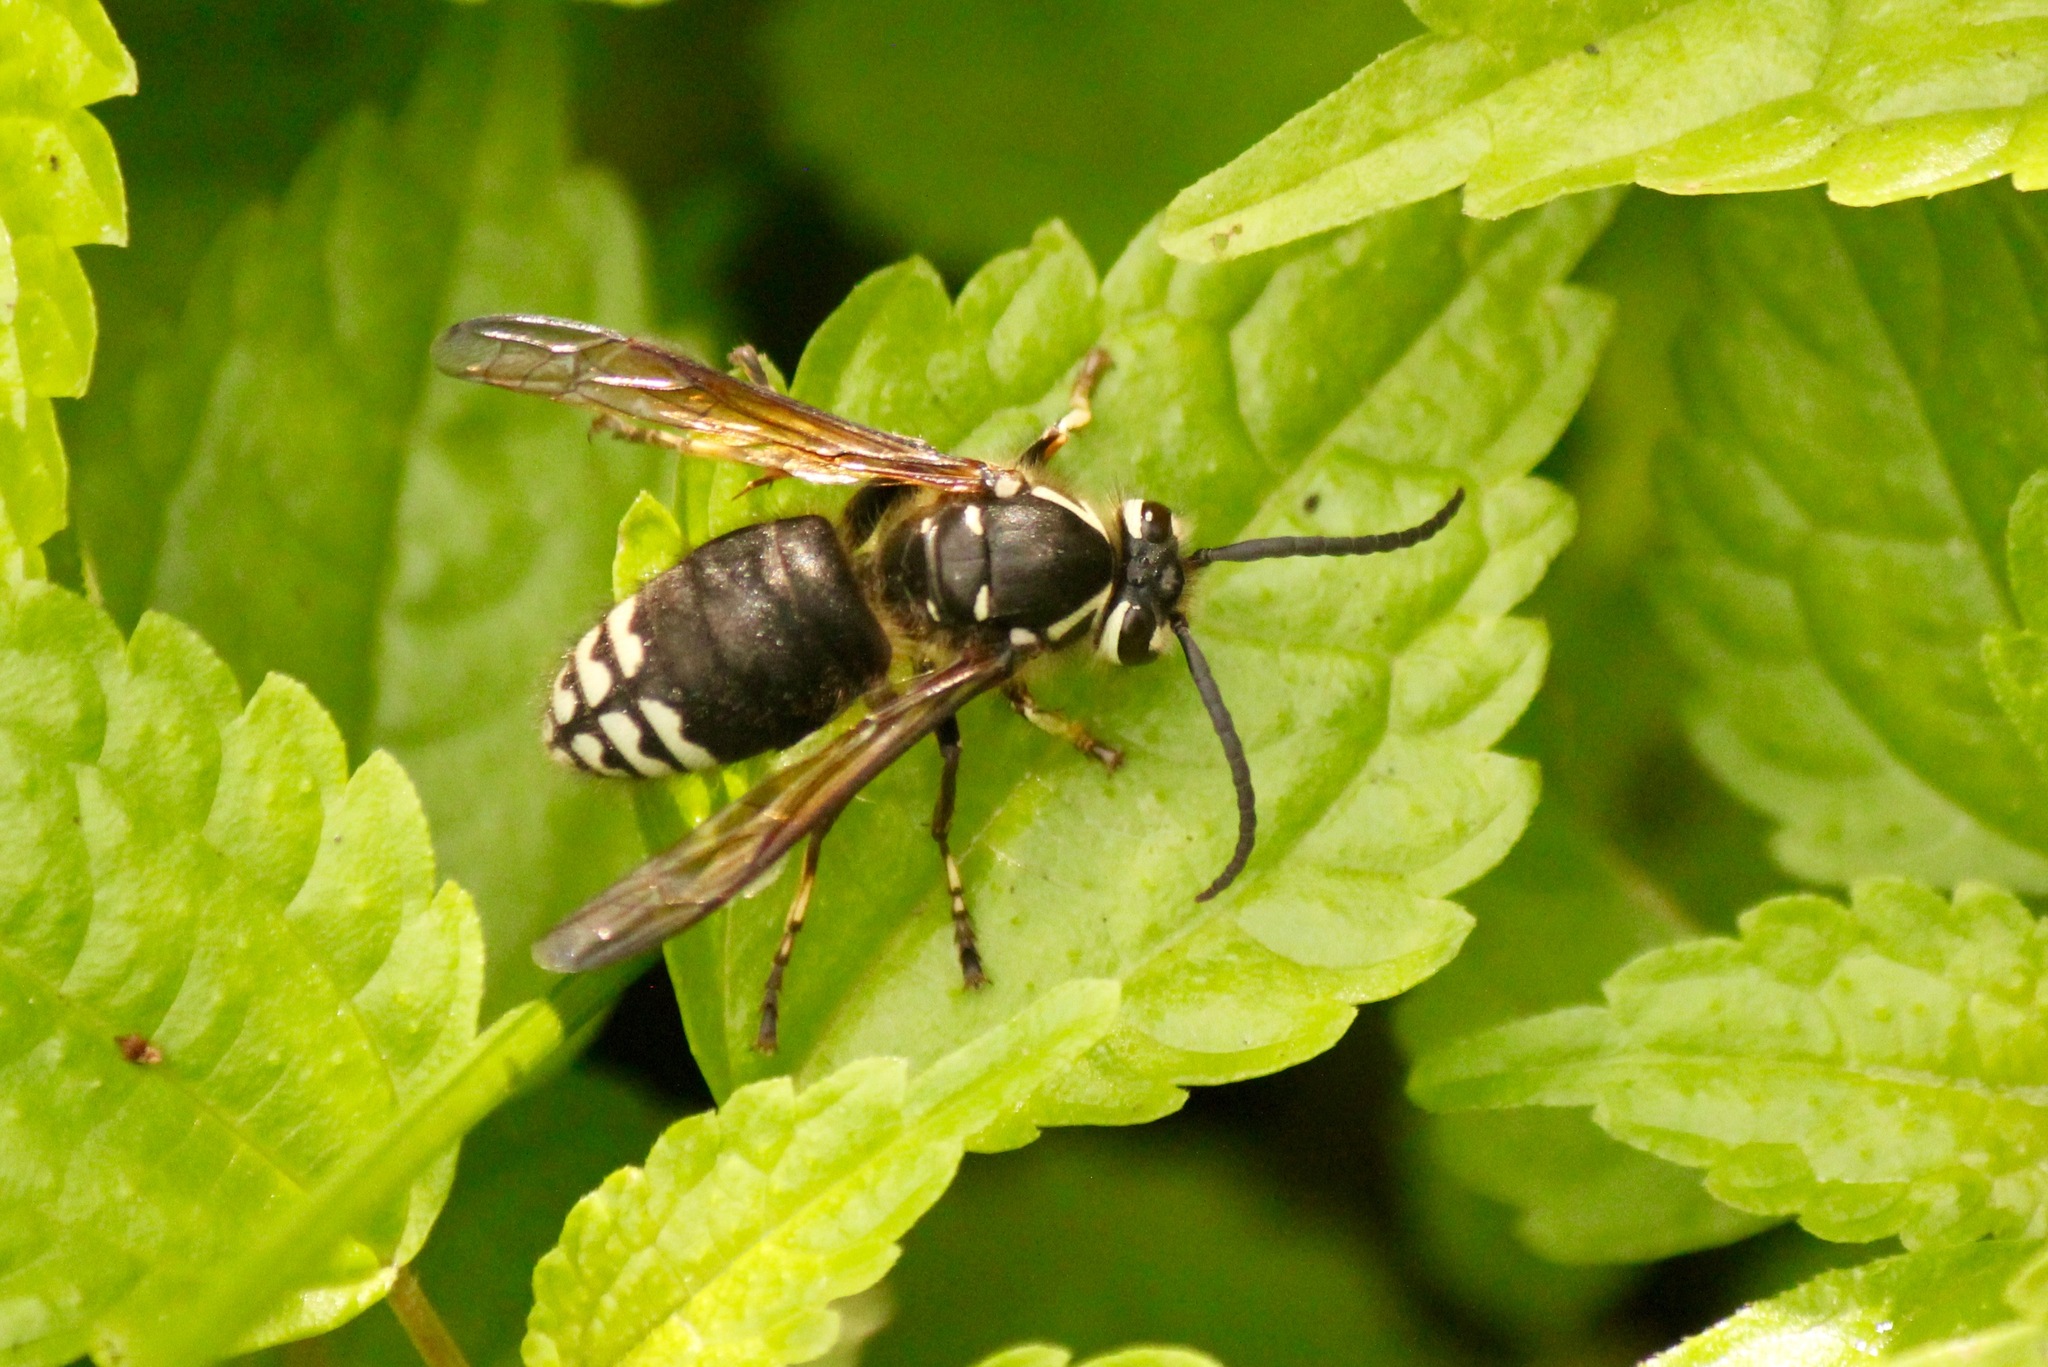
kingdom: Animalia
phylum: Arthropoda
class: Insecta
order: Hymenoptera
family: Vespidae
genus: Dolichovespula
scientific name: Dolichovespula maculata
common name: Bald-faced hornet
